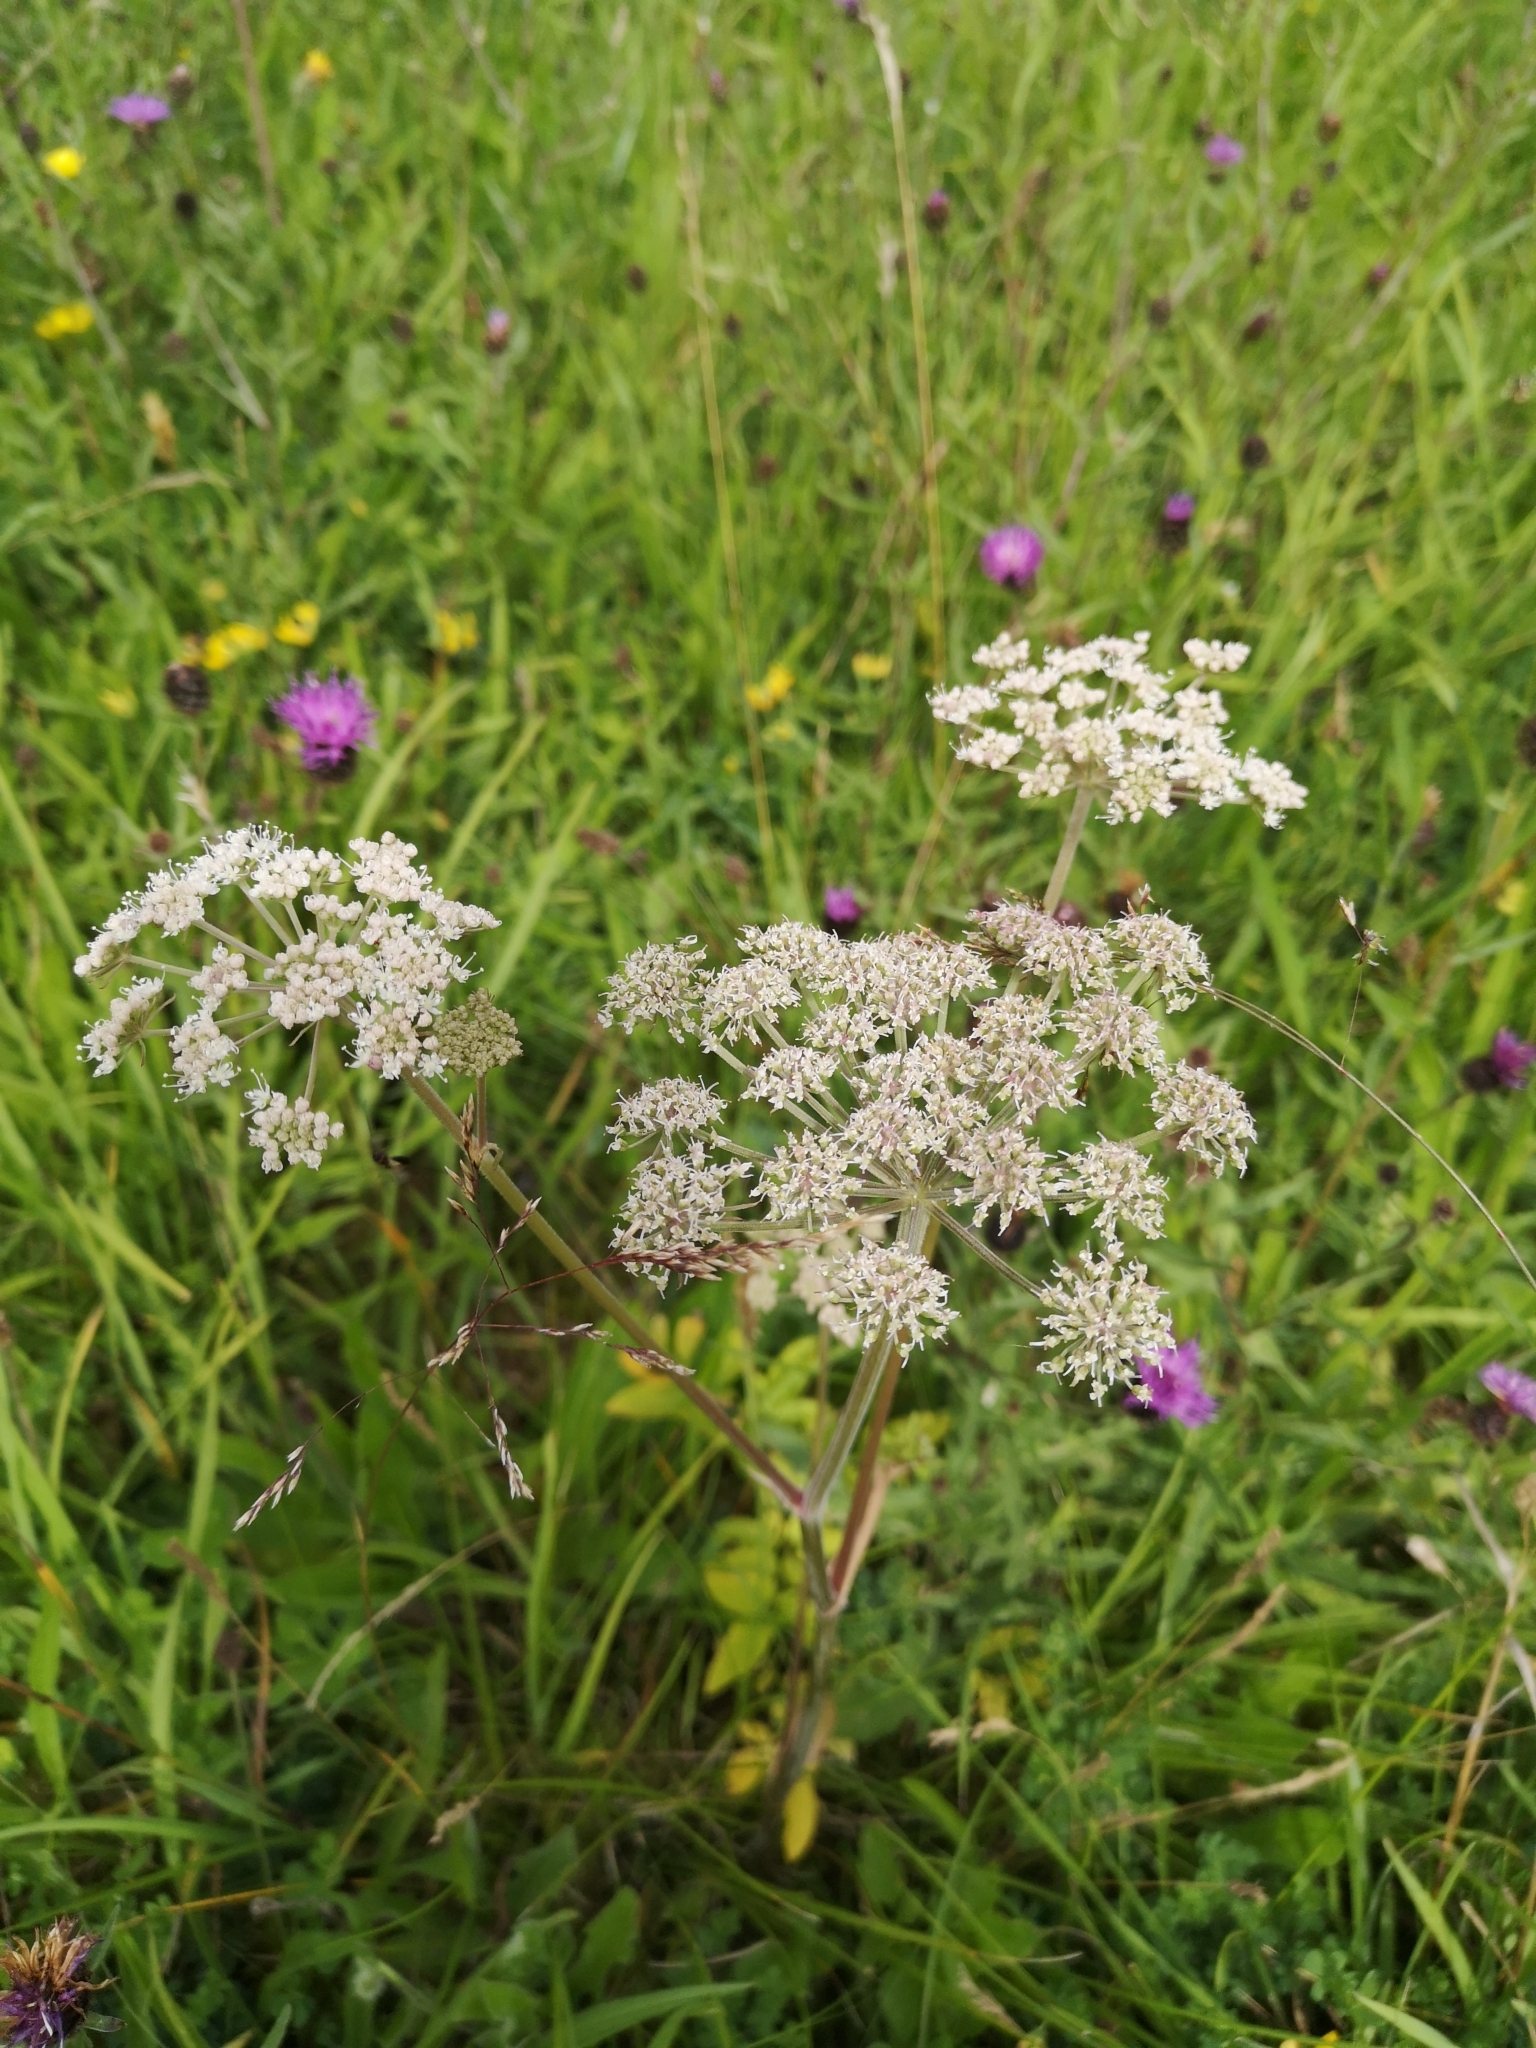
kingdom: Plantae
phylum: Tracheophyta
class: Magnoliopsida
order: Apiales
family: Apiaceae
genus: Angelica
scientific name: Angelica sylvestris
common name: Wild angelica
